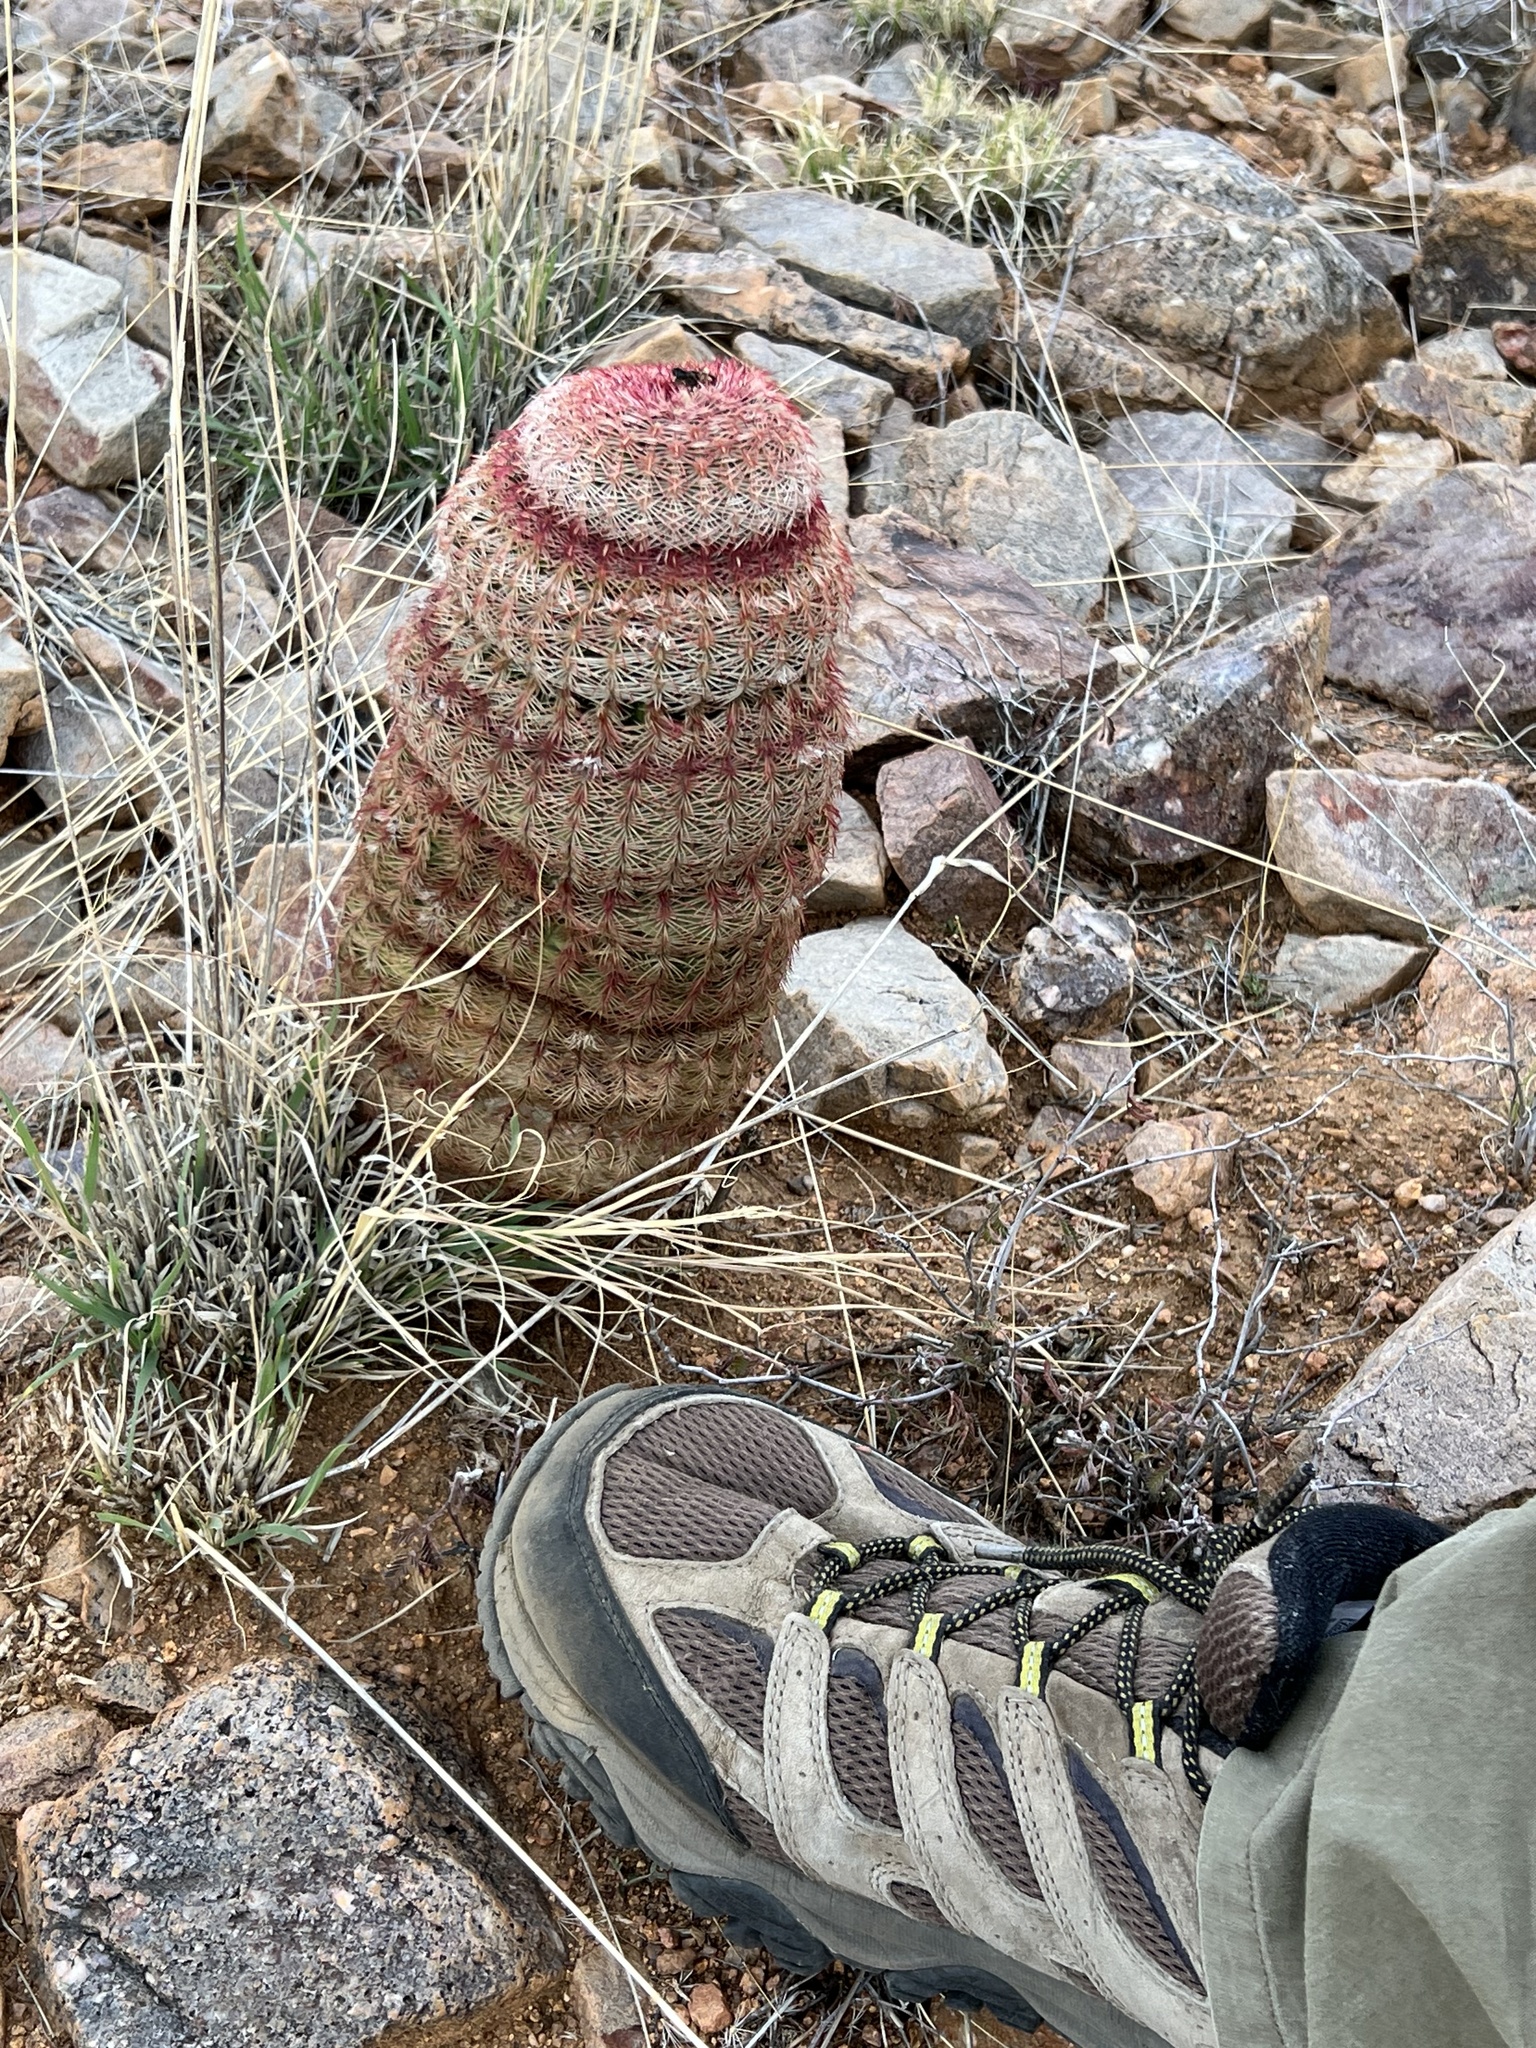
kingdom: Plantae
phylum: Tracheophyta
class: Magnoliopsida
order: Caryophyllales
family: Cactaceae
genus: Echinocereus
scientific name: Echinocereus rigidissimus
